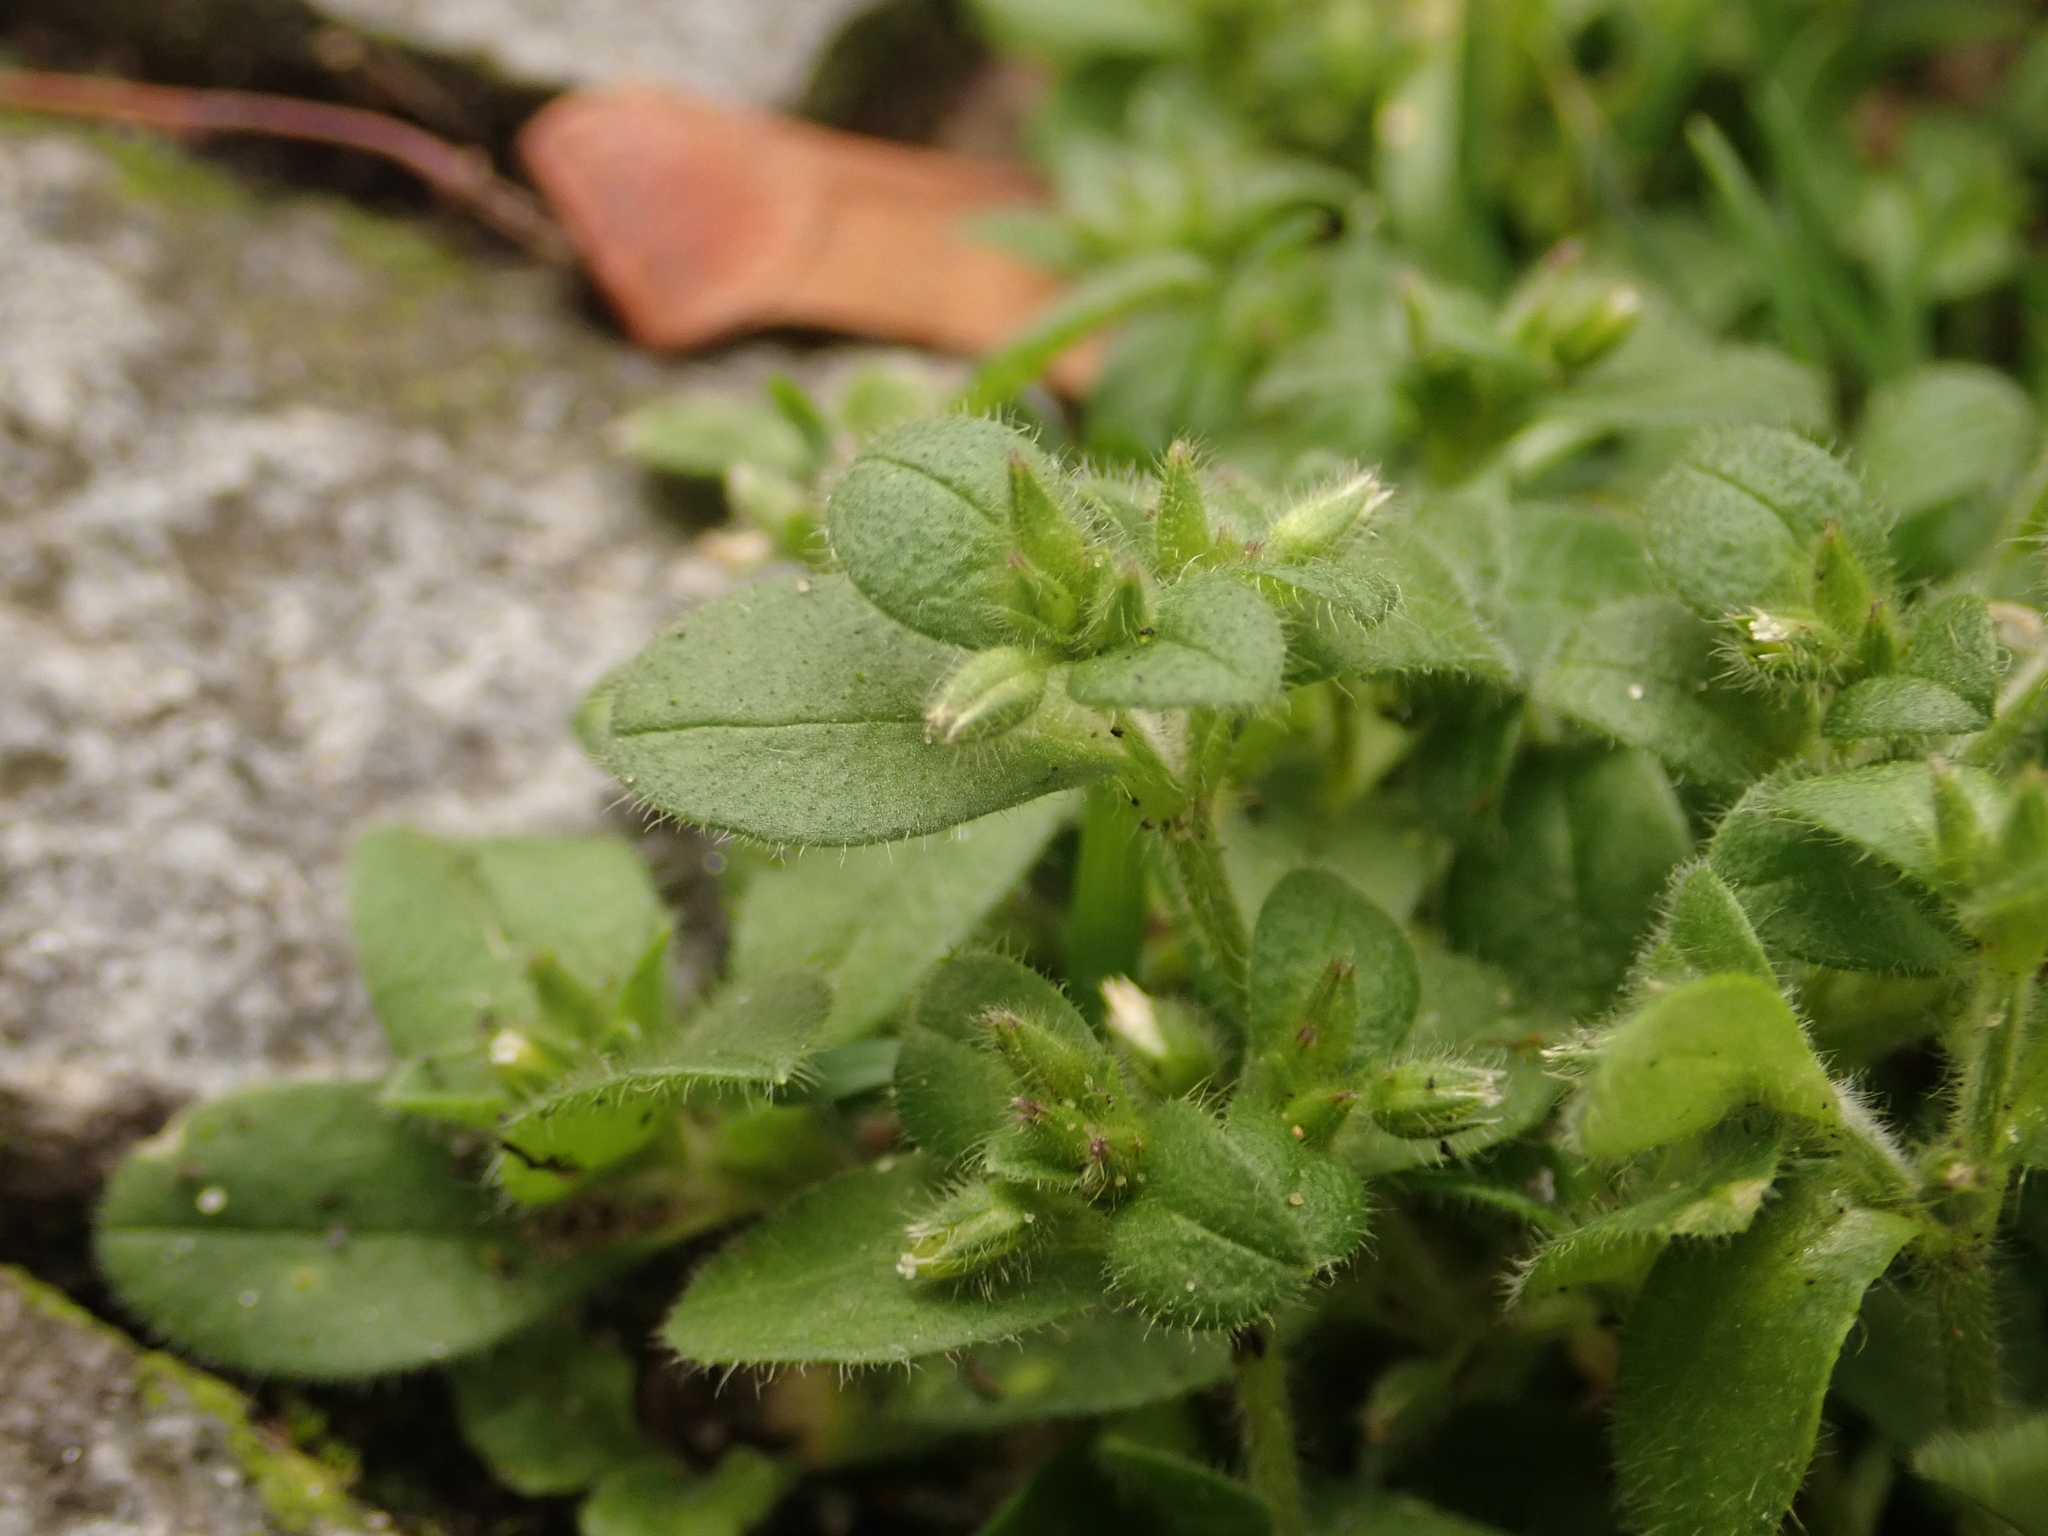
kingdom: Plantae
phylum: Tracheophyta
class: Magnoliopsida
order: Caryophyllales
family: Caryophyllaceae
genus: Cerastium
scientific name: Cerastium glomeratum
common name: Sticky chickweed
